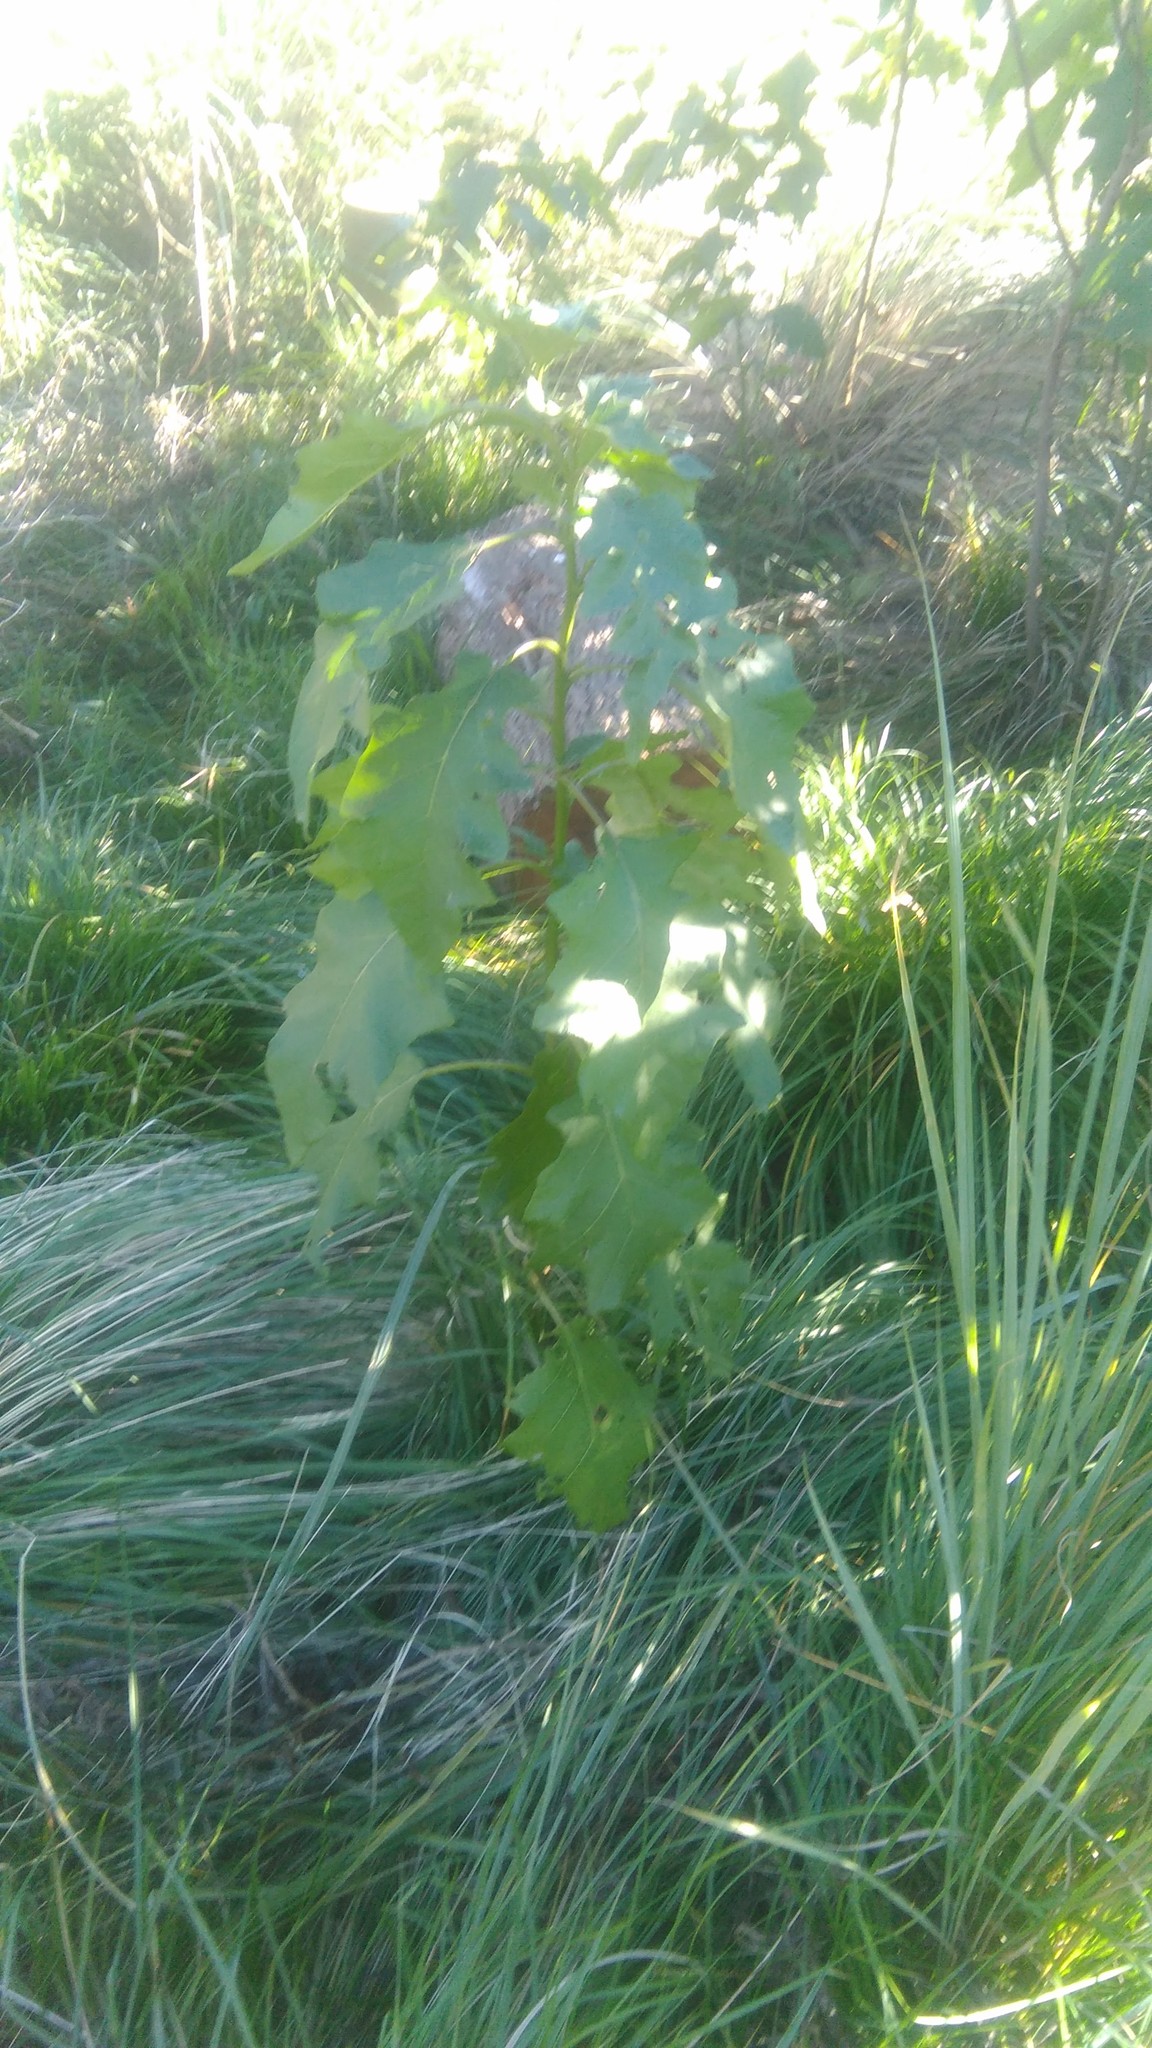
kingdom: Plantae
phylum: Tracheophyta
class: Magnoliopsida
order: Solanales
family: Solanaceae
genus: Solanum
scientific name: Solanum bonariense
